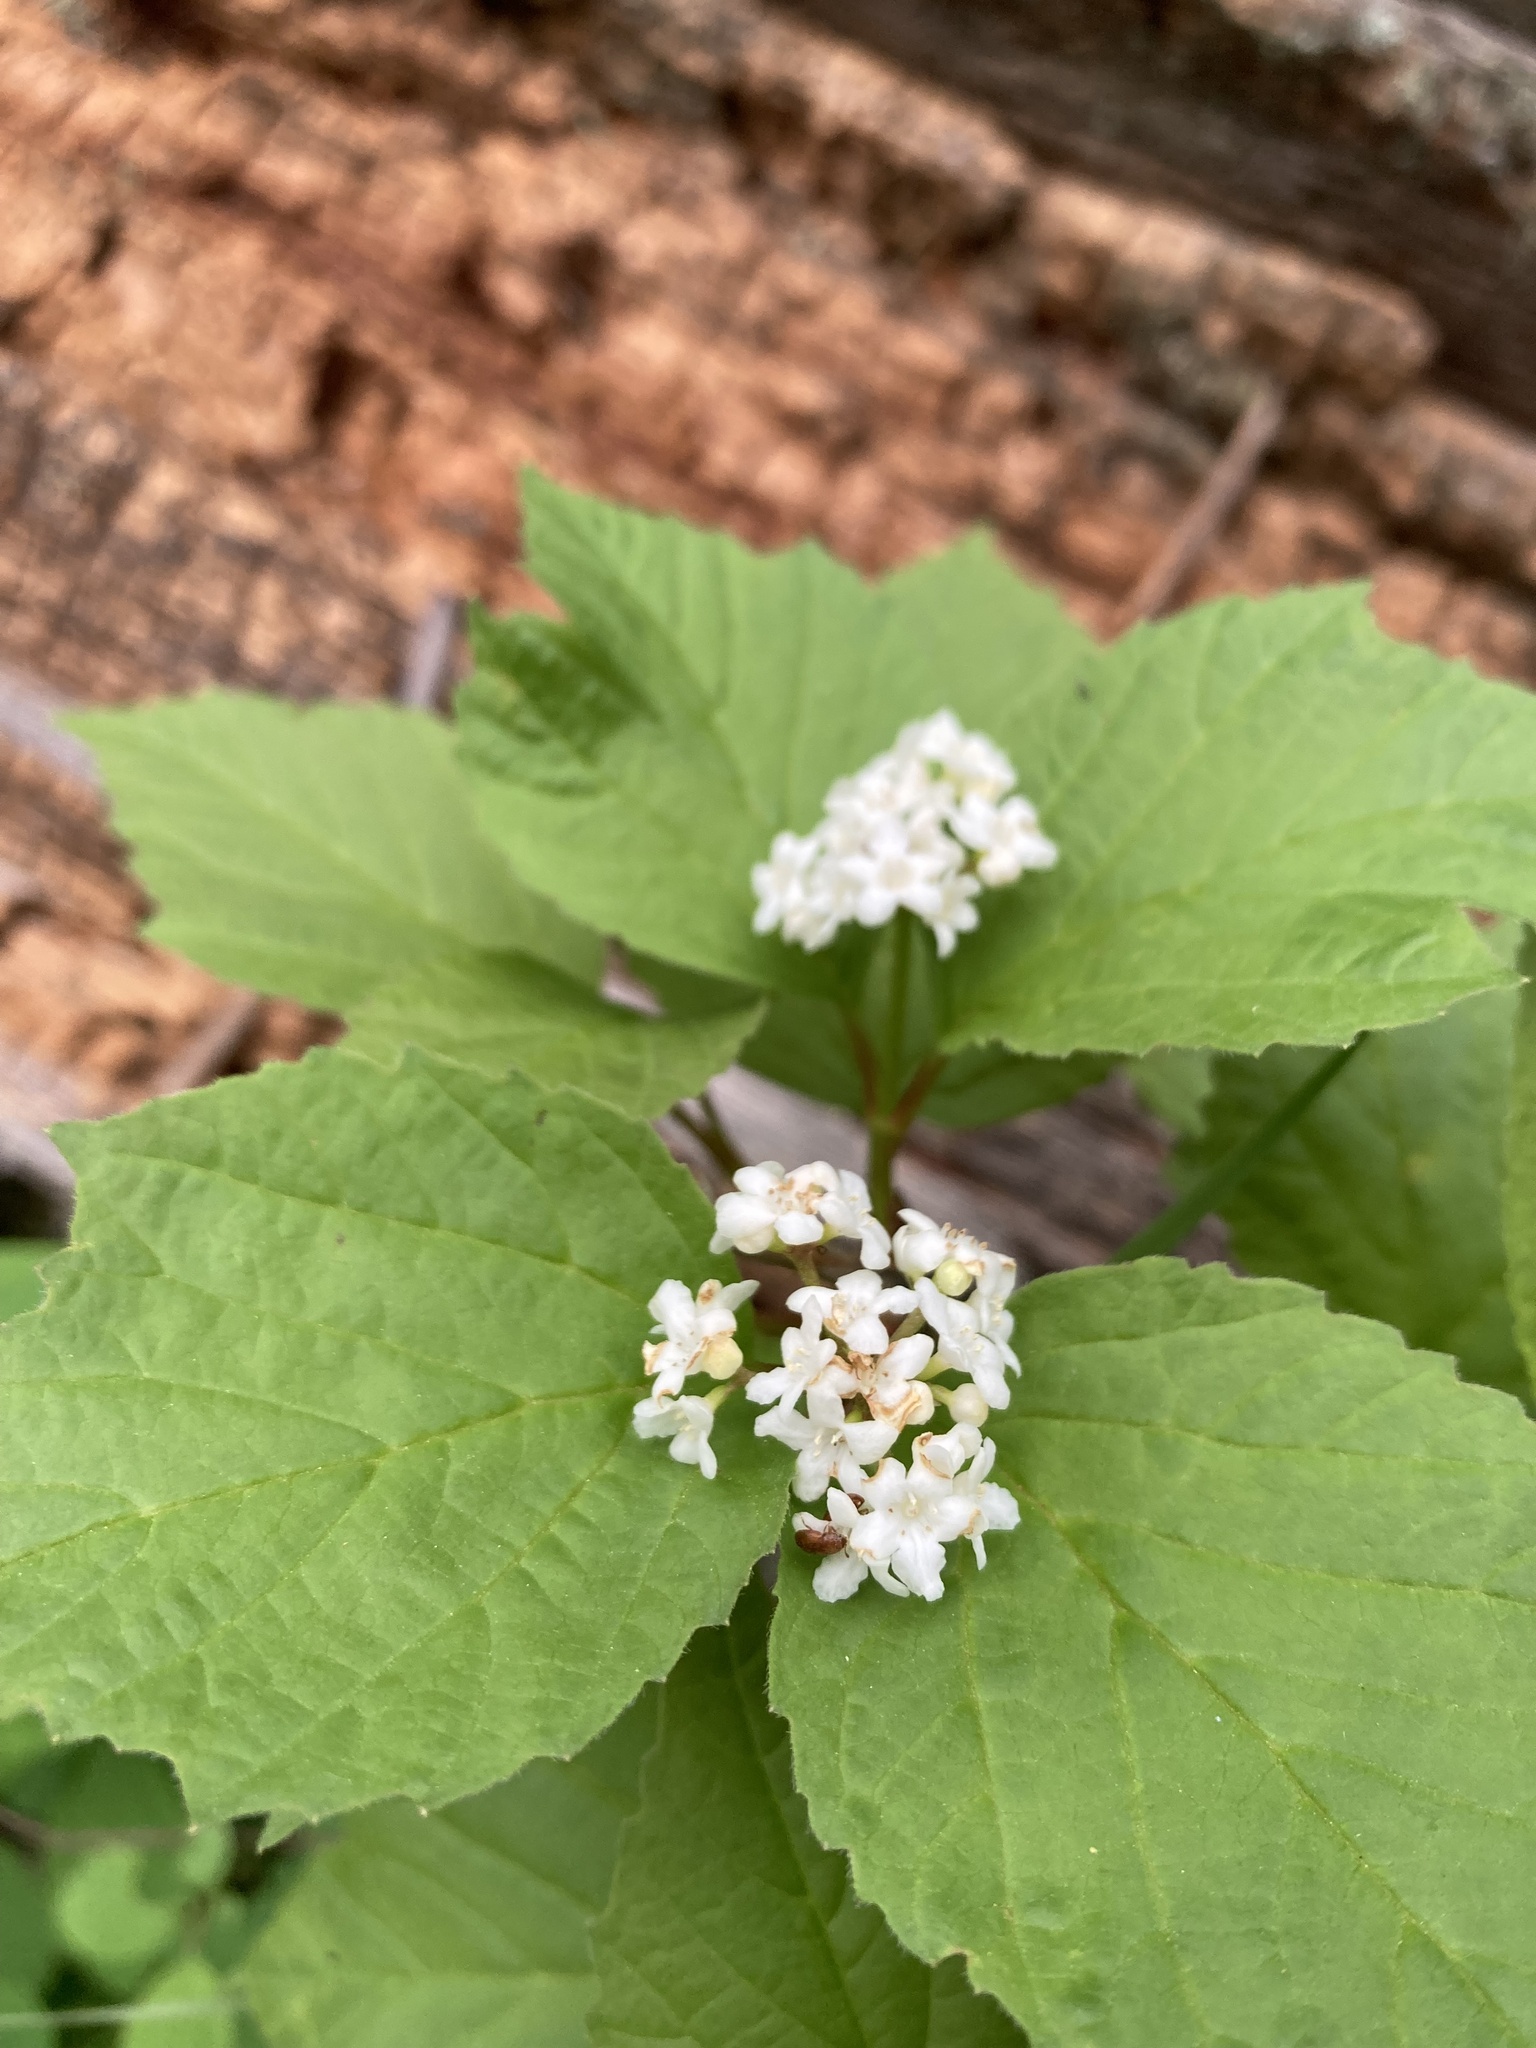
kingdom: Plantae
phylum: Tracheophyta
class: Magnoliopsida
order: Dipsacales
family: Viburnaceae
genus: Viburnum
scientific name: Viburnum edule
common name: Mooseberry
